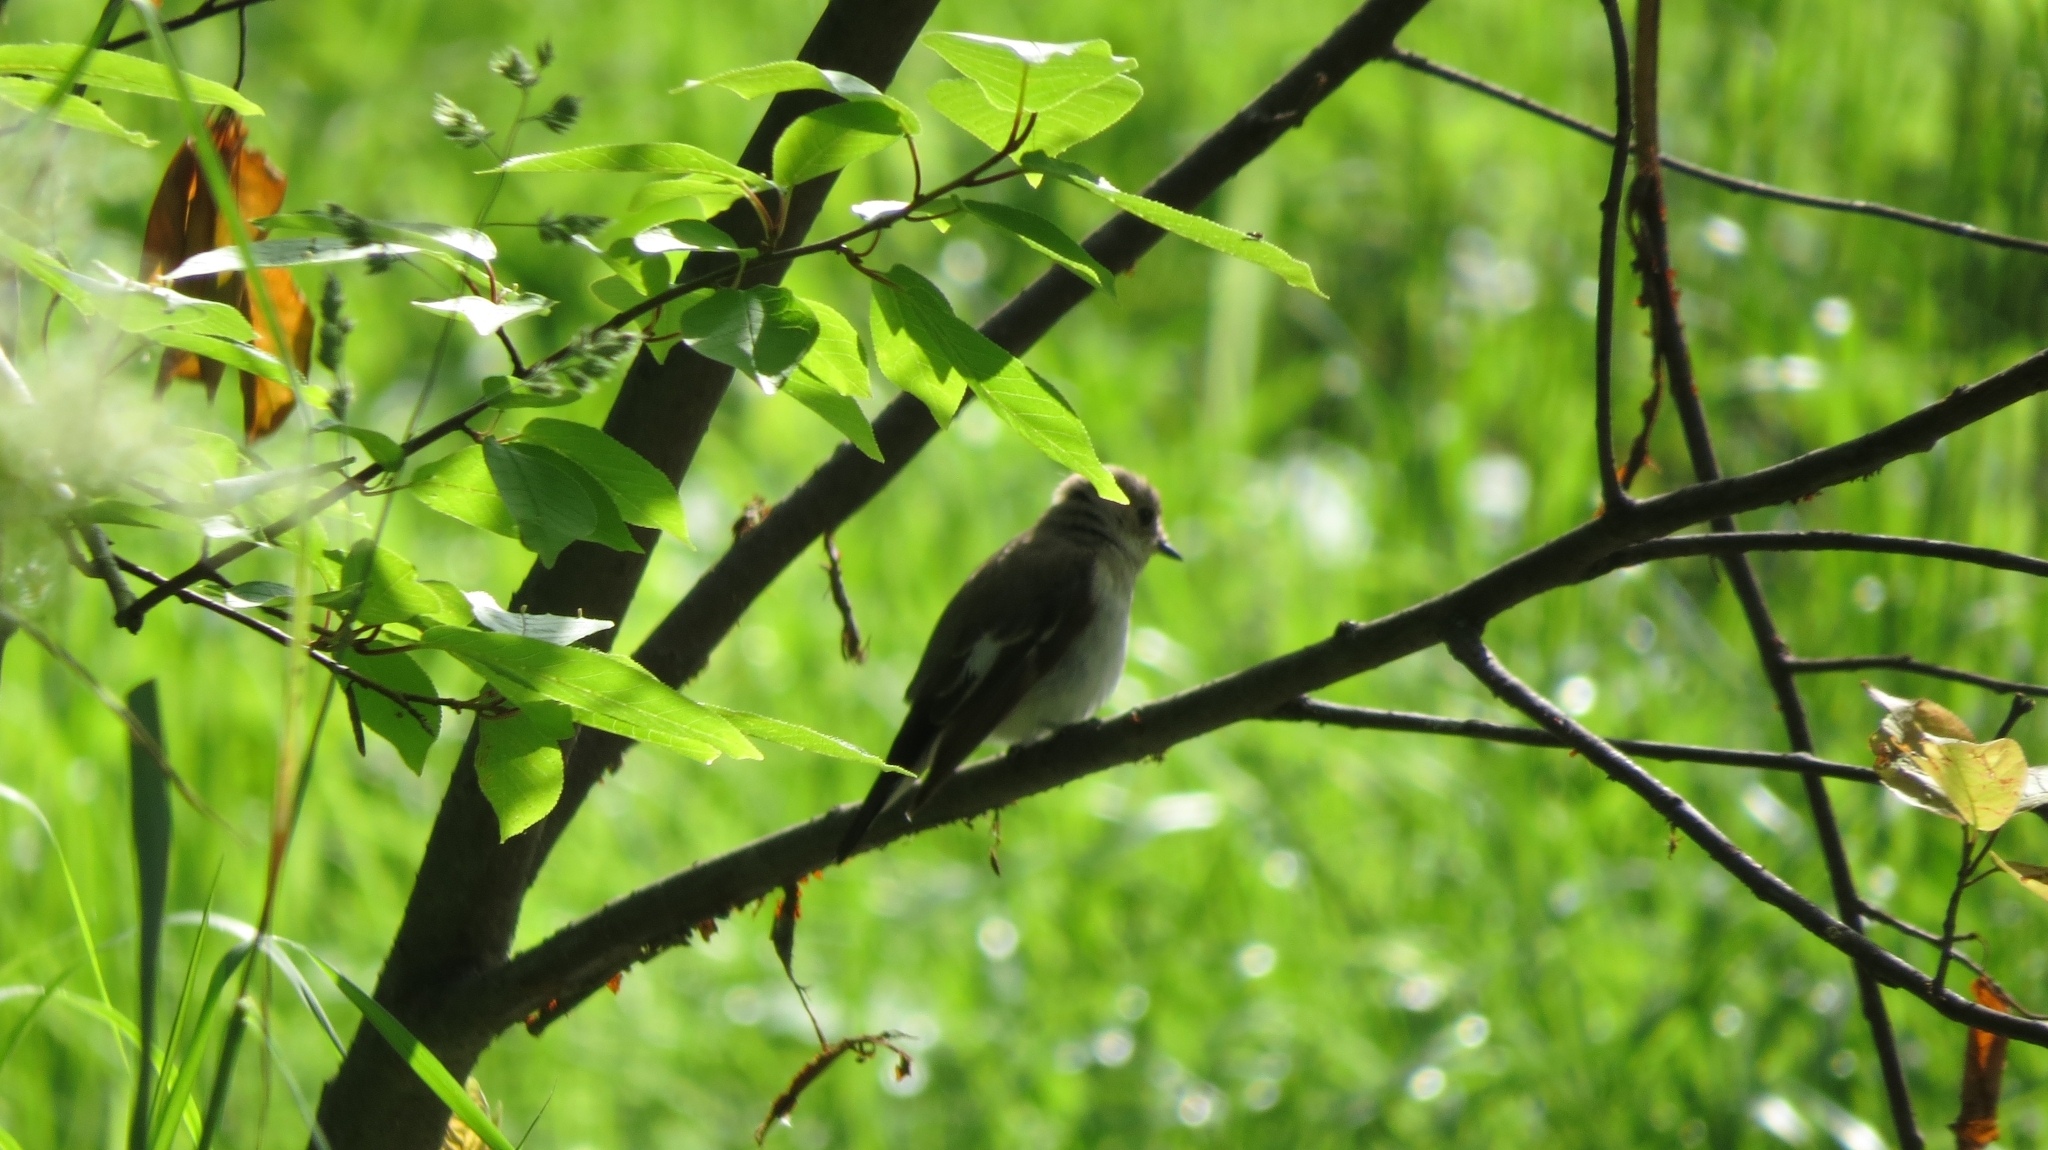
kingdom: Animalia
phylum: Chordata
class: Aves
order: Passeriformes
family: Muscicapidae
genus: Ficedula
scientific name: Ficedula hypoleuca
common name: European pied flycatcher
